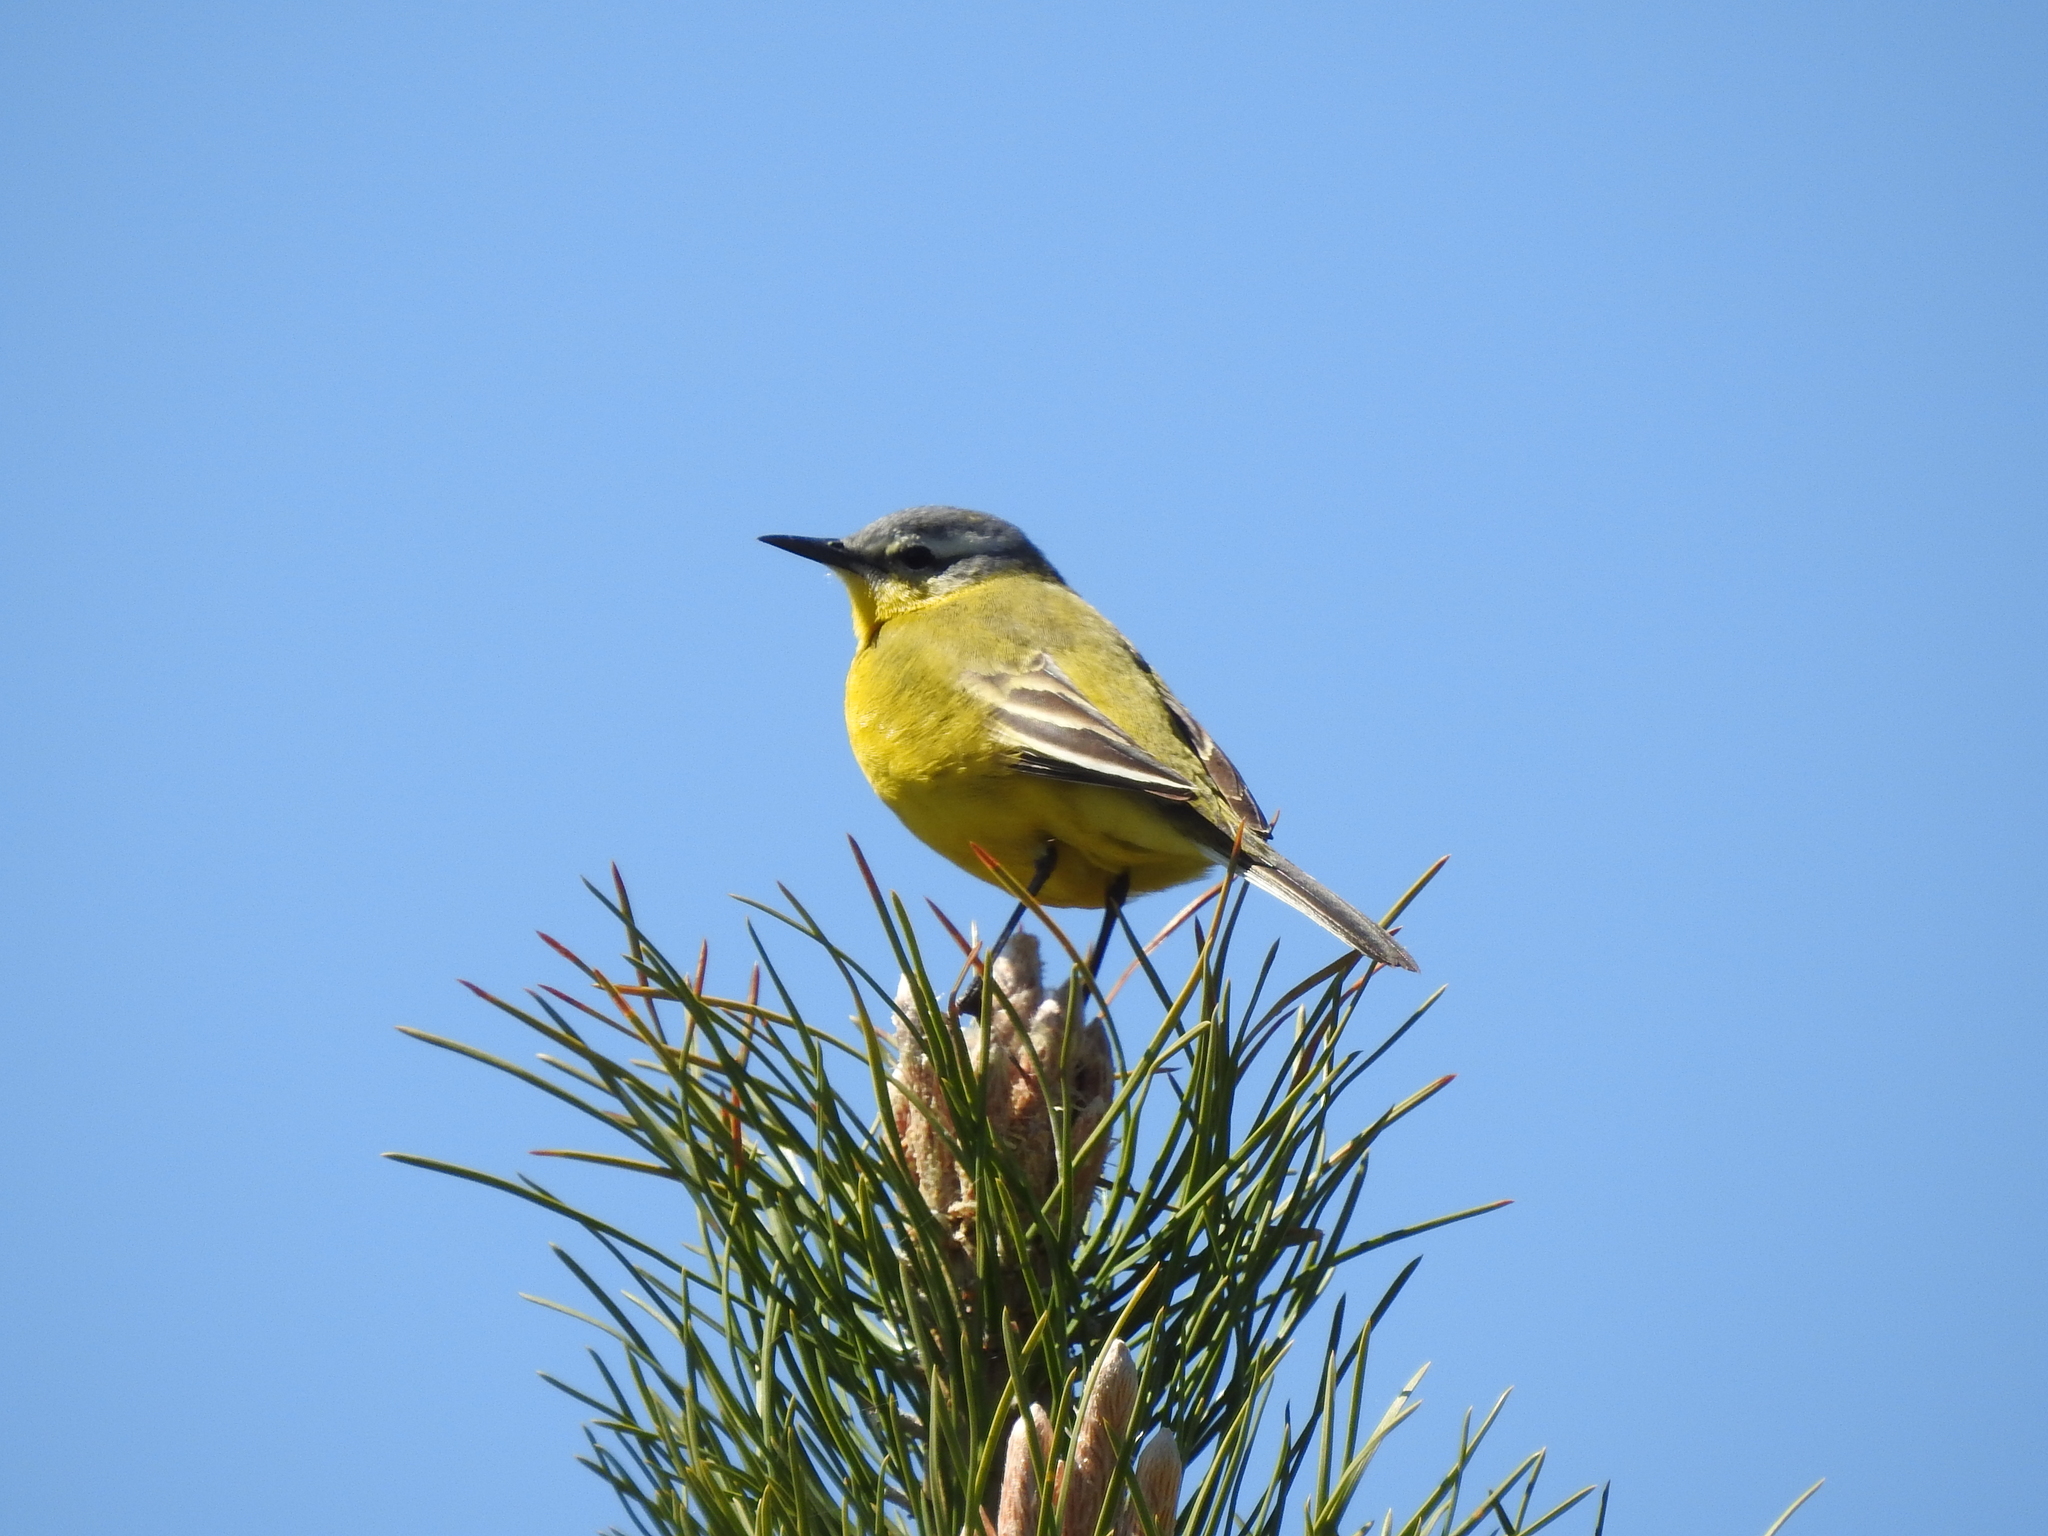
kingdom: Animalia
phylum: Chordata
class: Aves
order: Passeriformes
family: Motacillidae
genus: Motacilla
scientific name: Motacilla flava
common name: Western yellow wagtail
